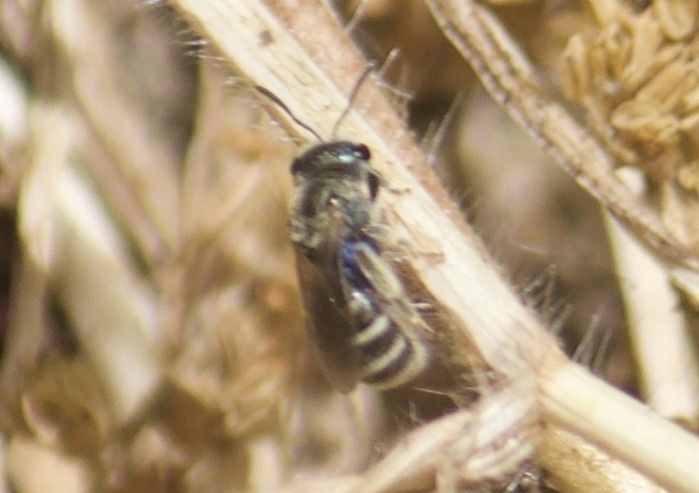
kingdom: Animalia
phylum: Arthropoda
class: Insecta
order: Hymenoptera
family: Halictidae
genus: Halictus
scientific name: Halictus tripartitus
